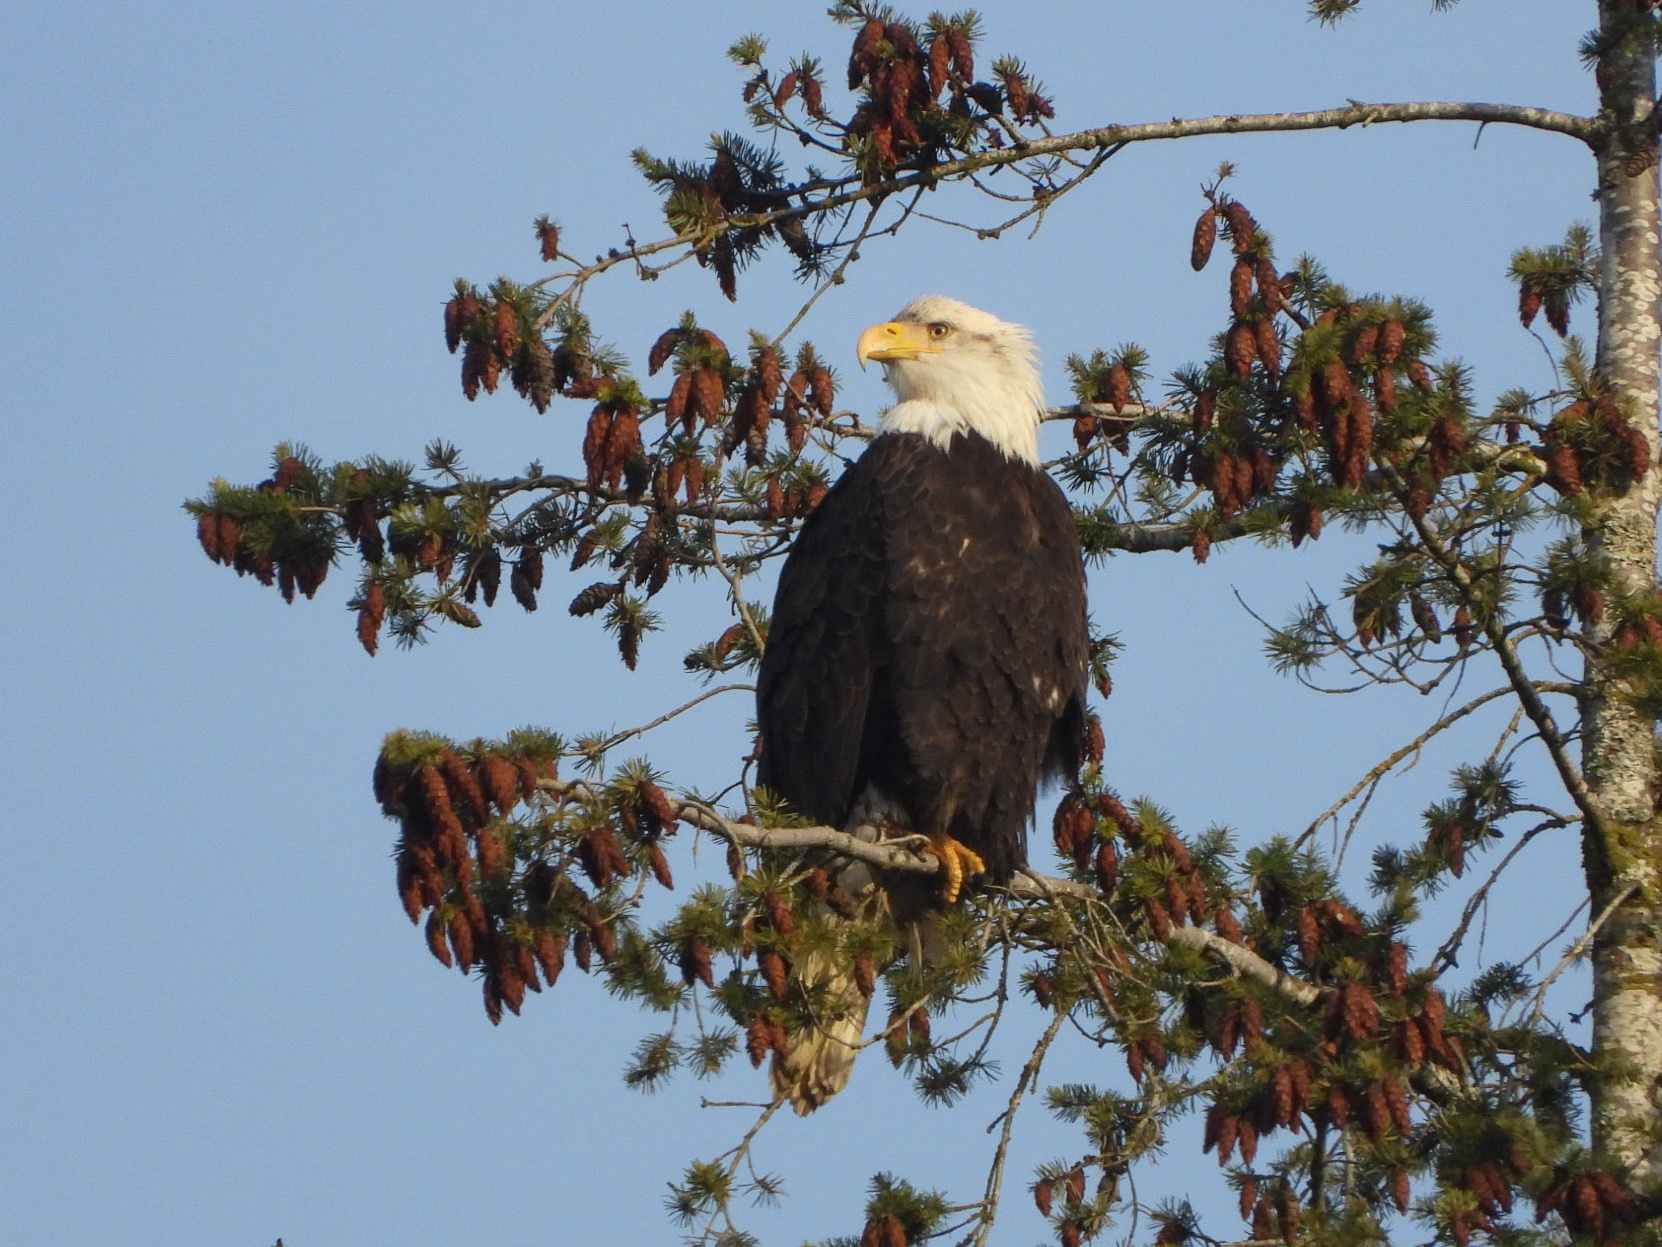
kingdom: Animalia
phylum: Chordata
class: Aves
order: Accipitriformes
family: Accipitridae
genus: Haliaeetus
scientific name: Haliaeetus leucocephalus
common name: Bald eagle
